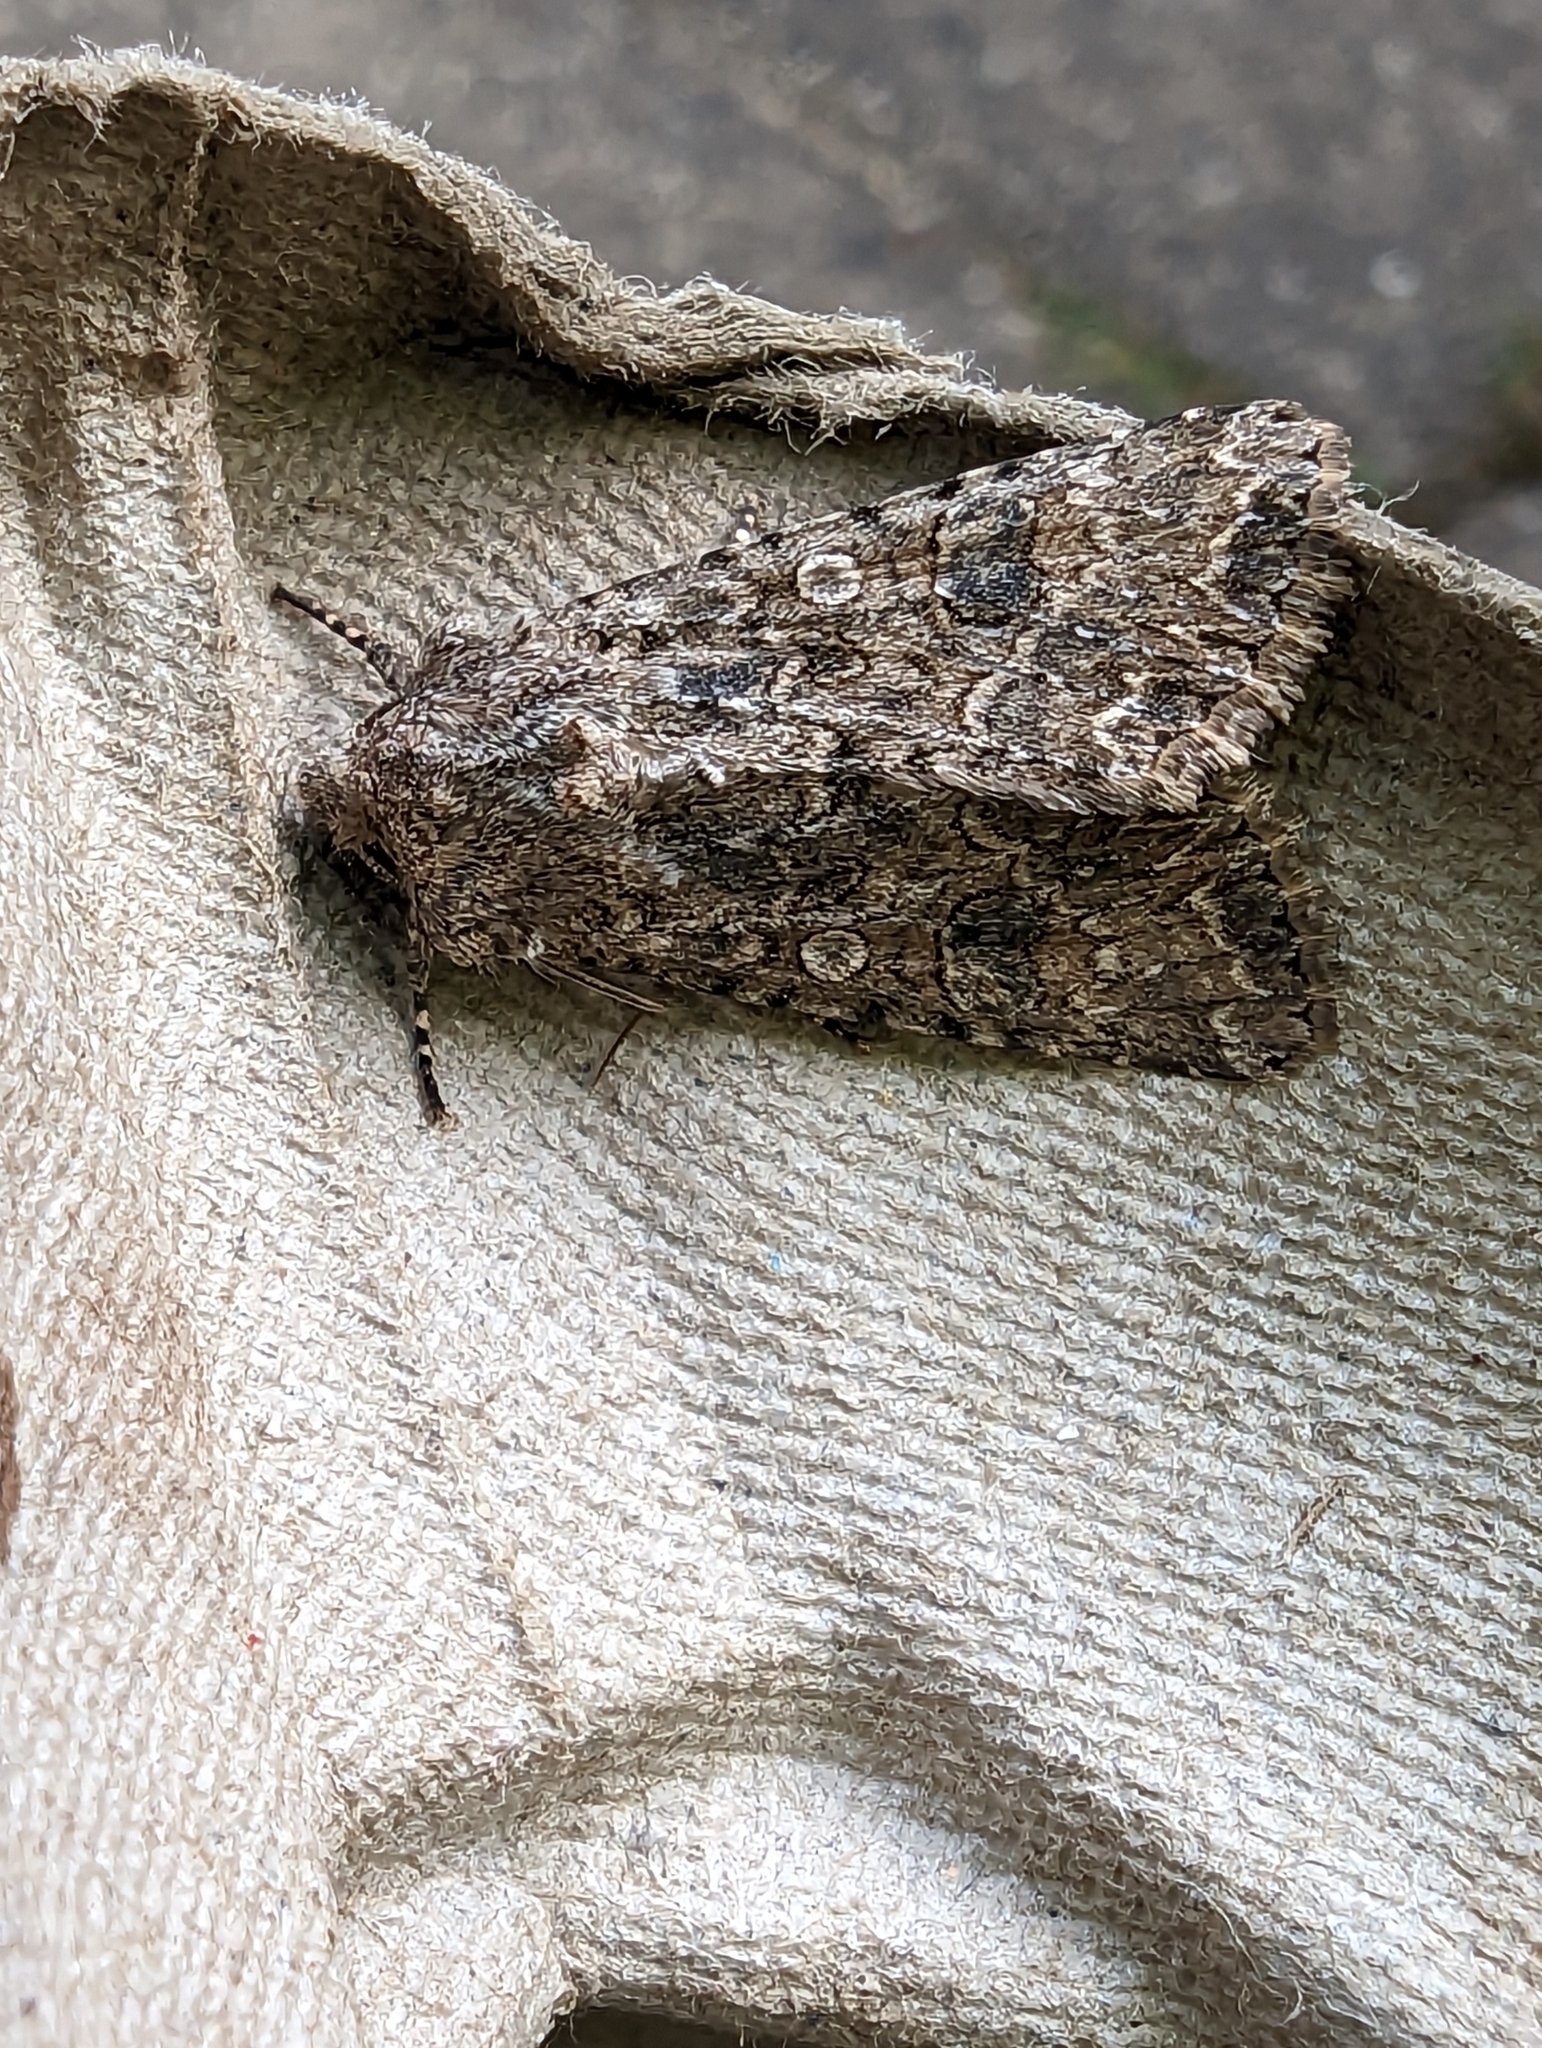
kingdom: Animalia
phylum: Arthropoda
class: Insecta
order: Lepidoptera
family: Noctuidae
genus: Anarta
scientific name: Anarta trifolii
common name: Clover cutworm moth
